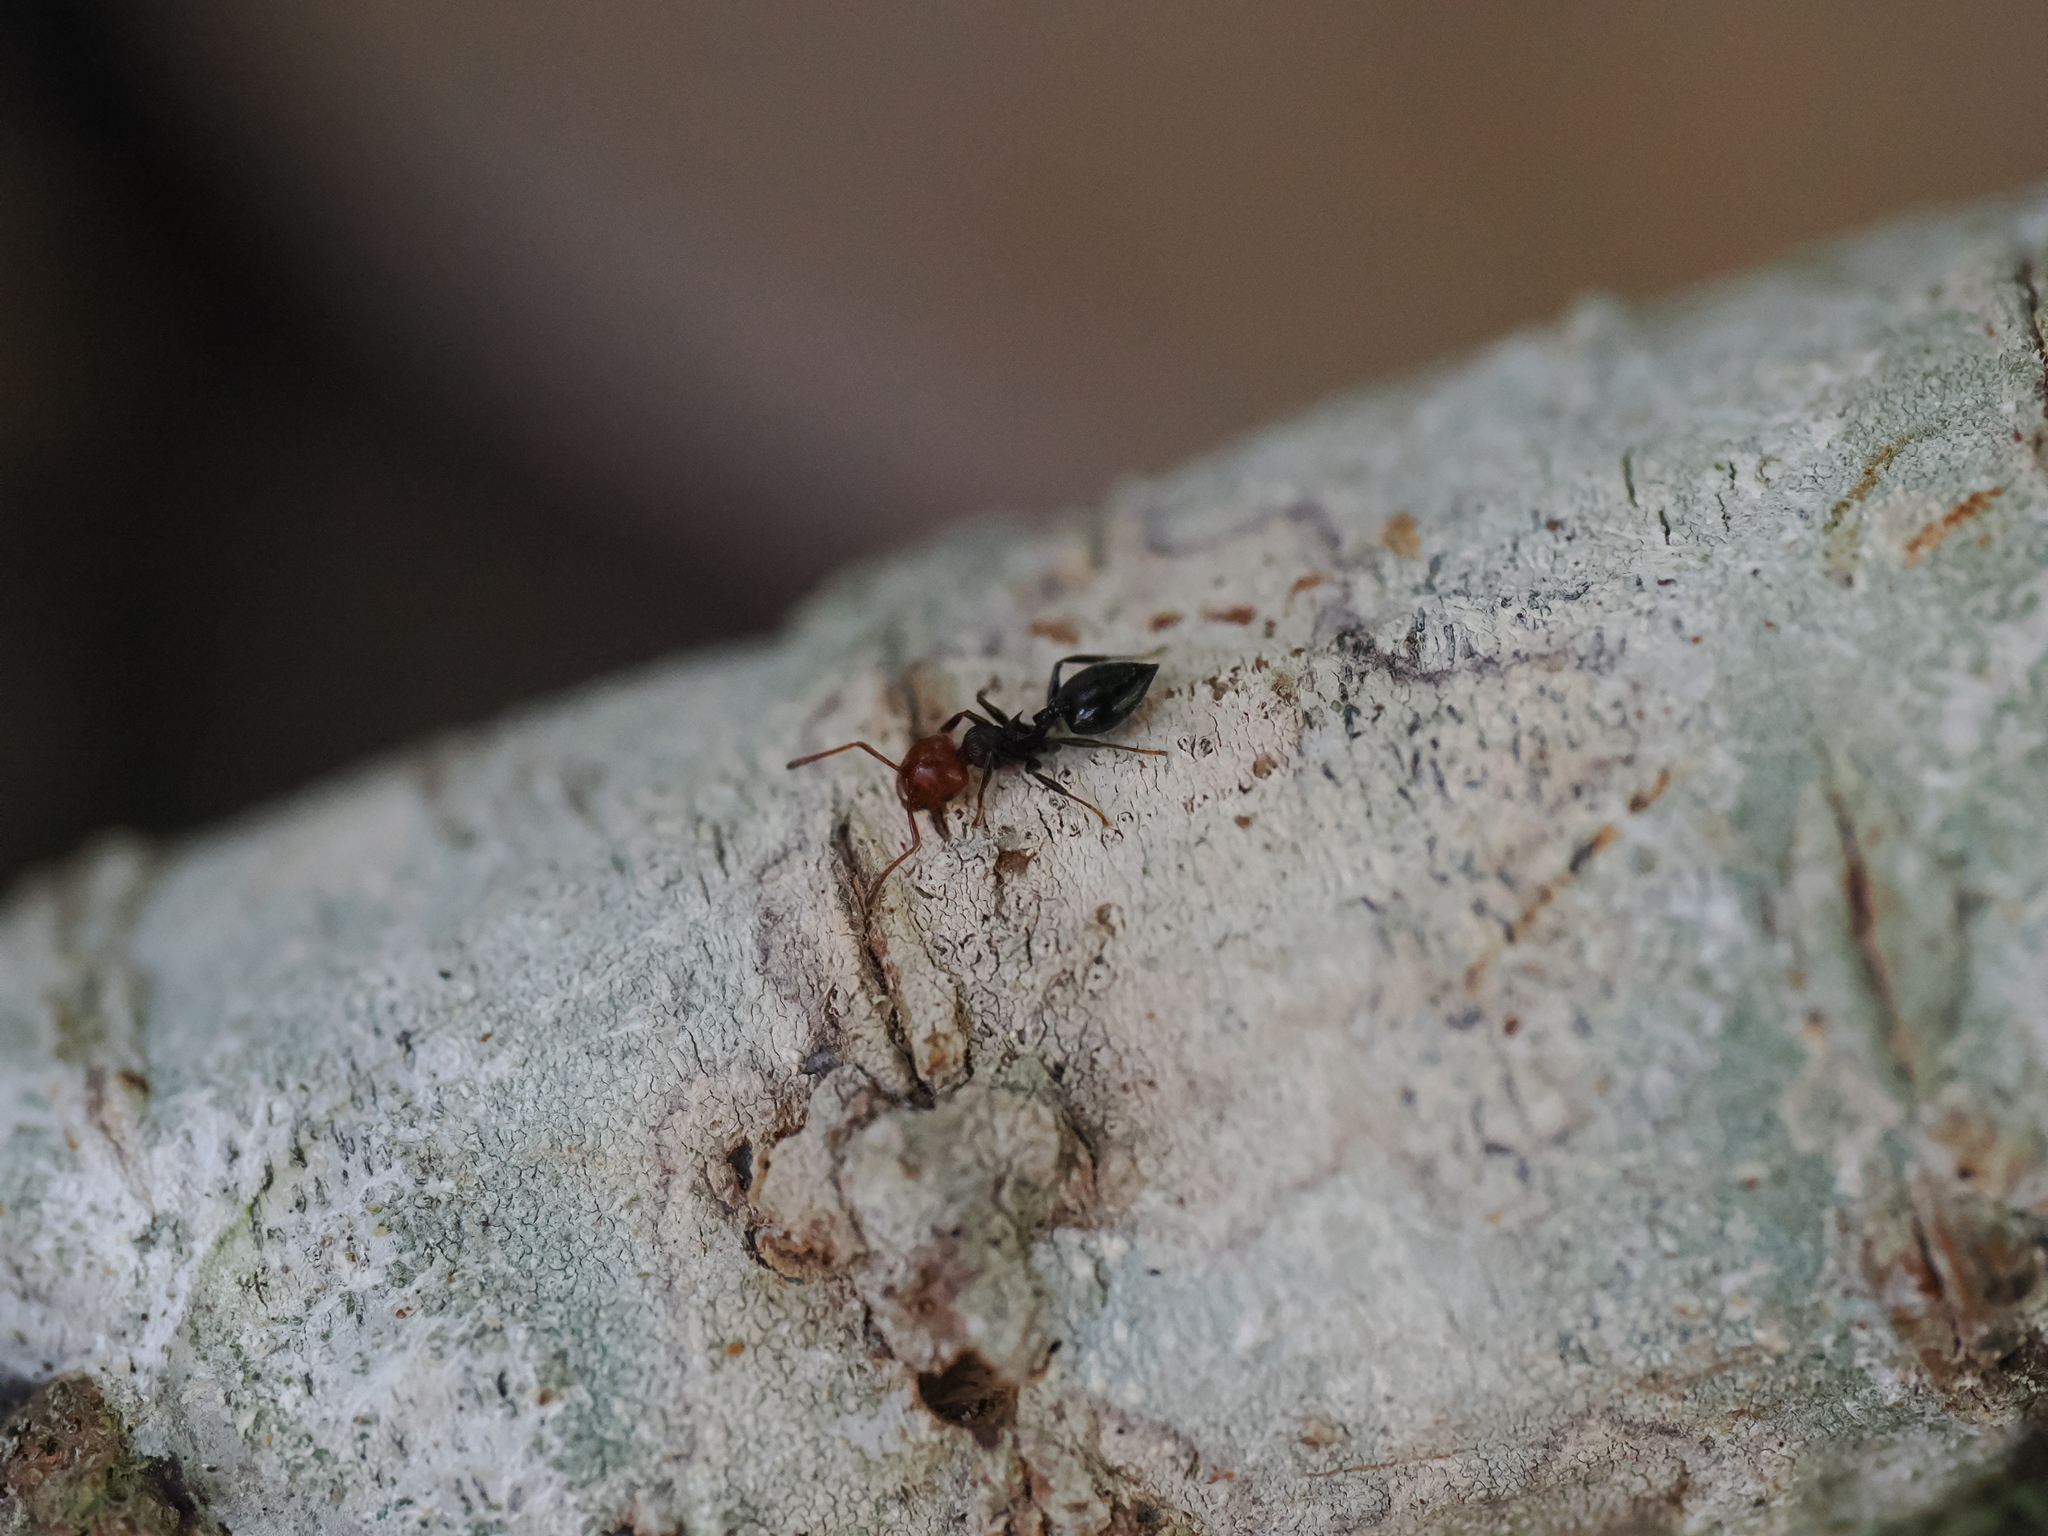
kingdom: Animalia
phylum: Arthropoda
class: Insecta
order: Hymenoptera
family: Formicidae
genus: Crematogaster
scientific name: Crematogaster scutellaris
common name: Fourmi du liège
